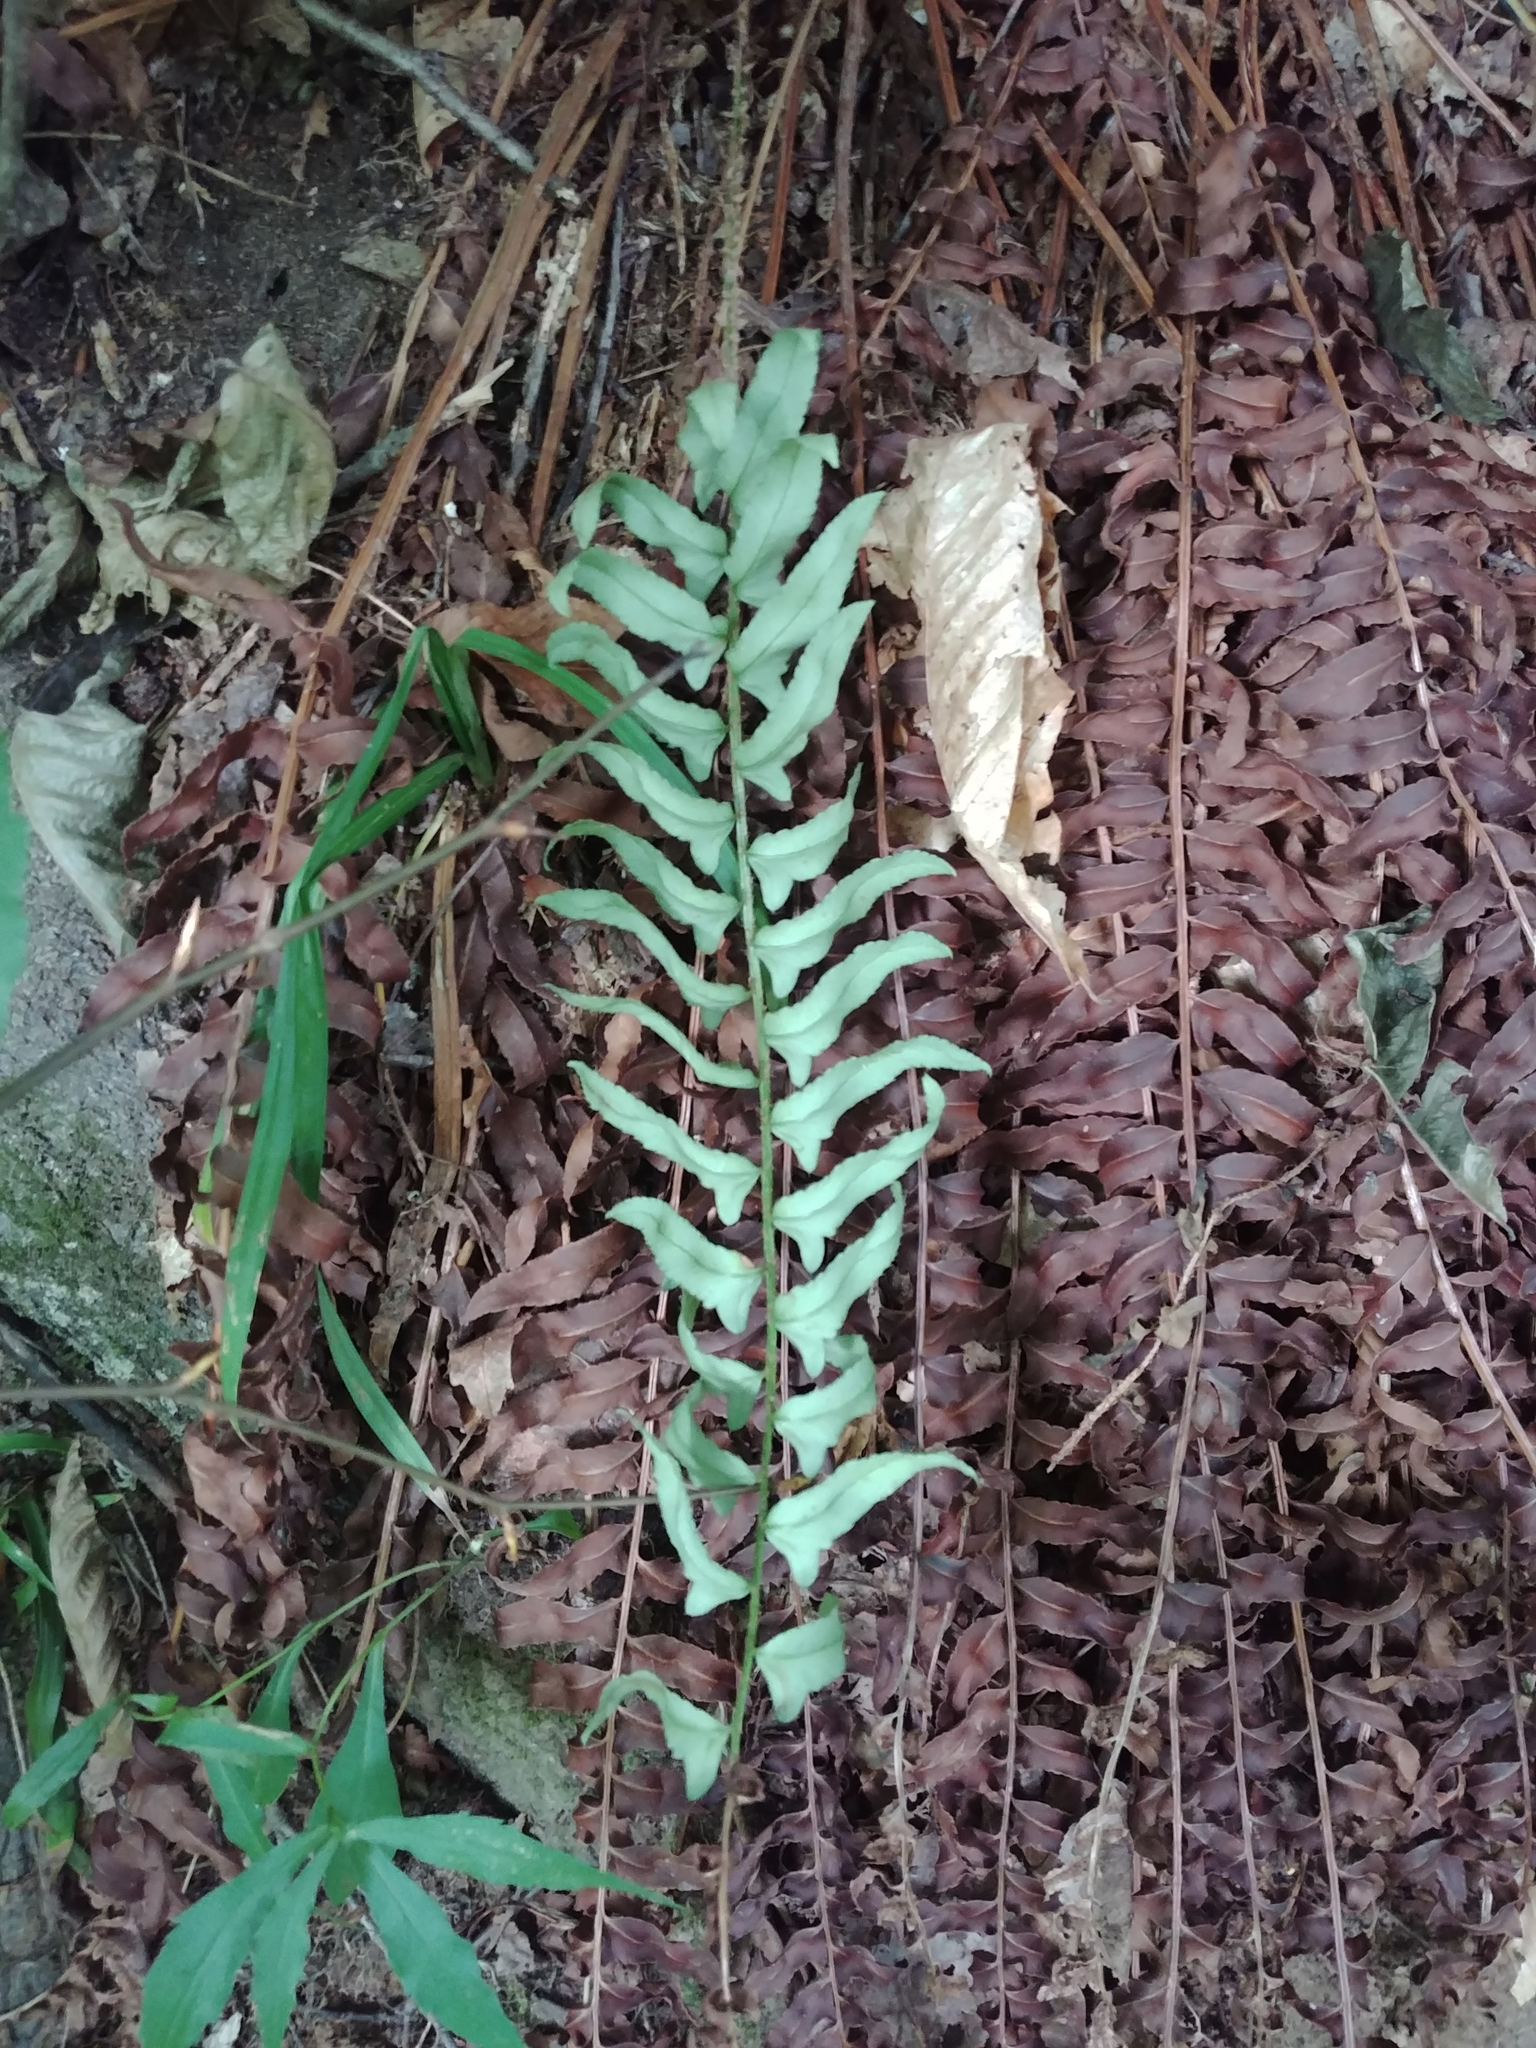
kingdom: Plantae
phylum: Tracheophyta
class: Polypodiopsida
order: Polypodiales
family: Dryopteridaceae
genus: Polystichum
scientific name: Polystichum acrostichoides
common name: Christmas fern
